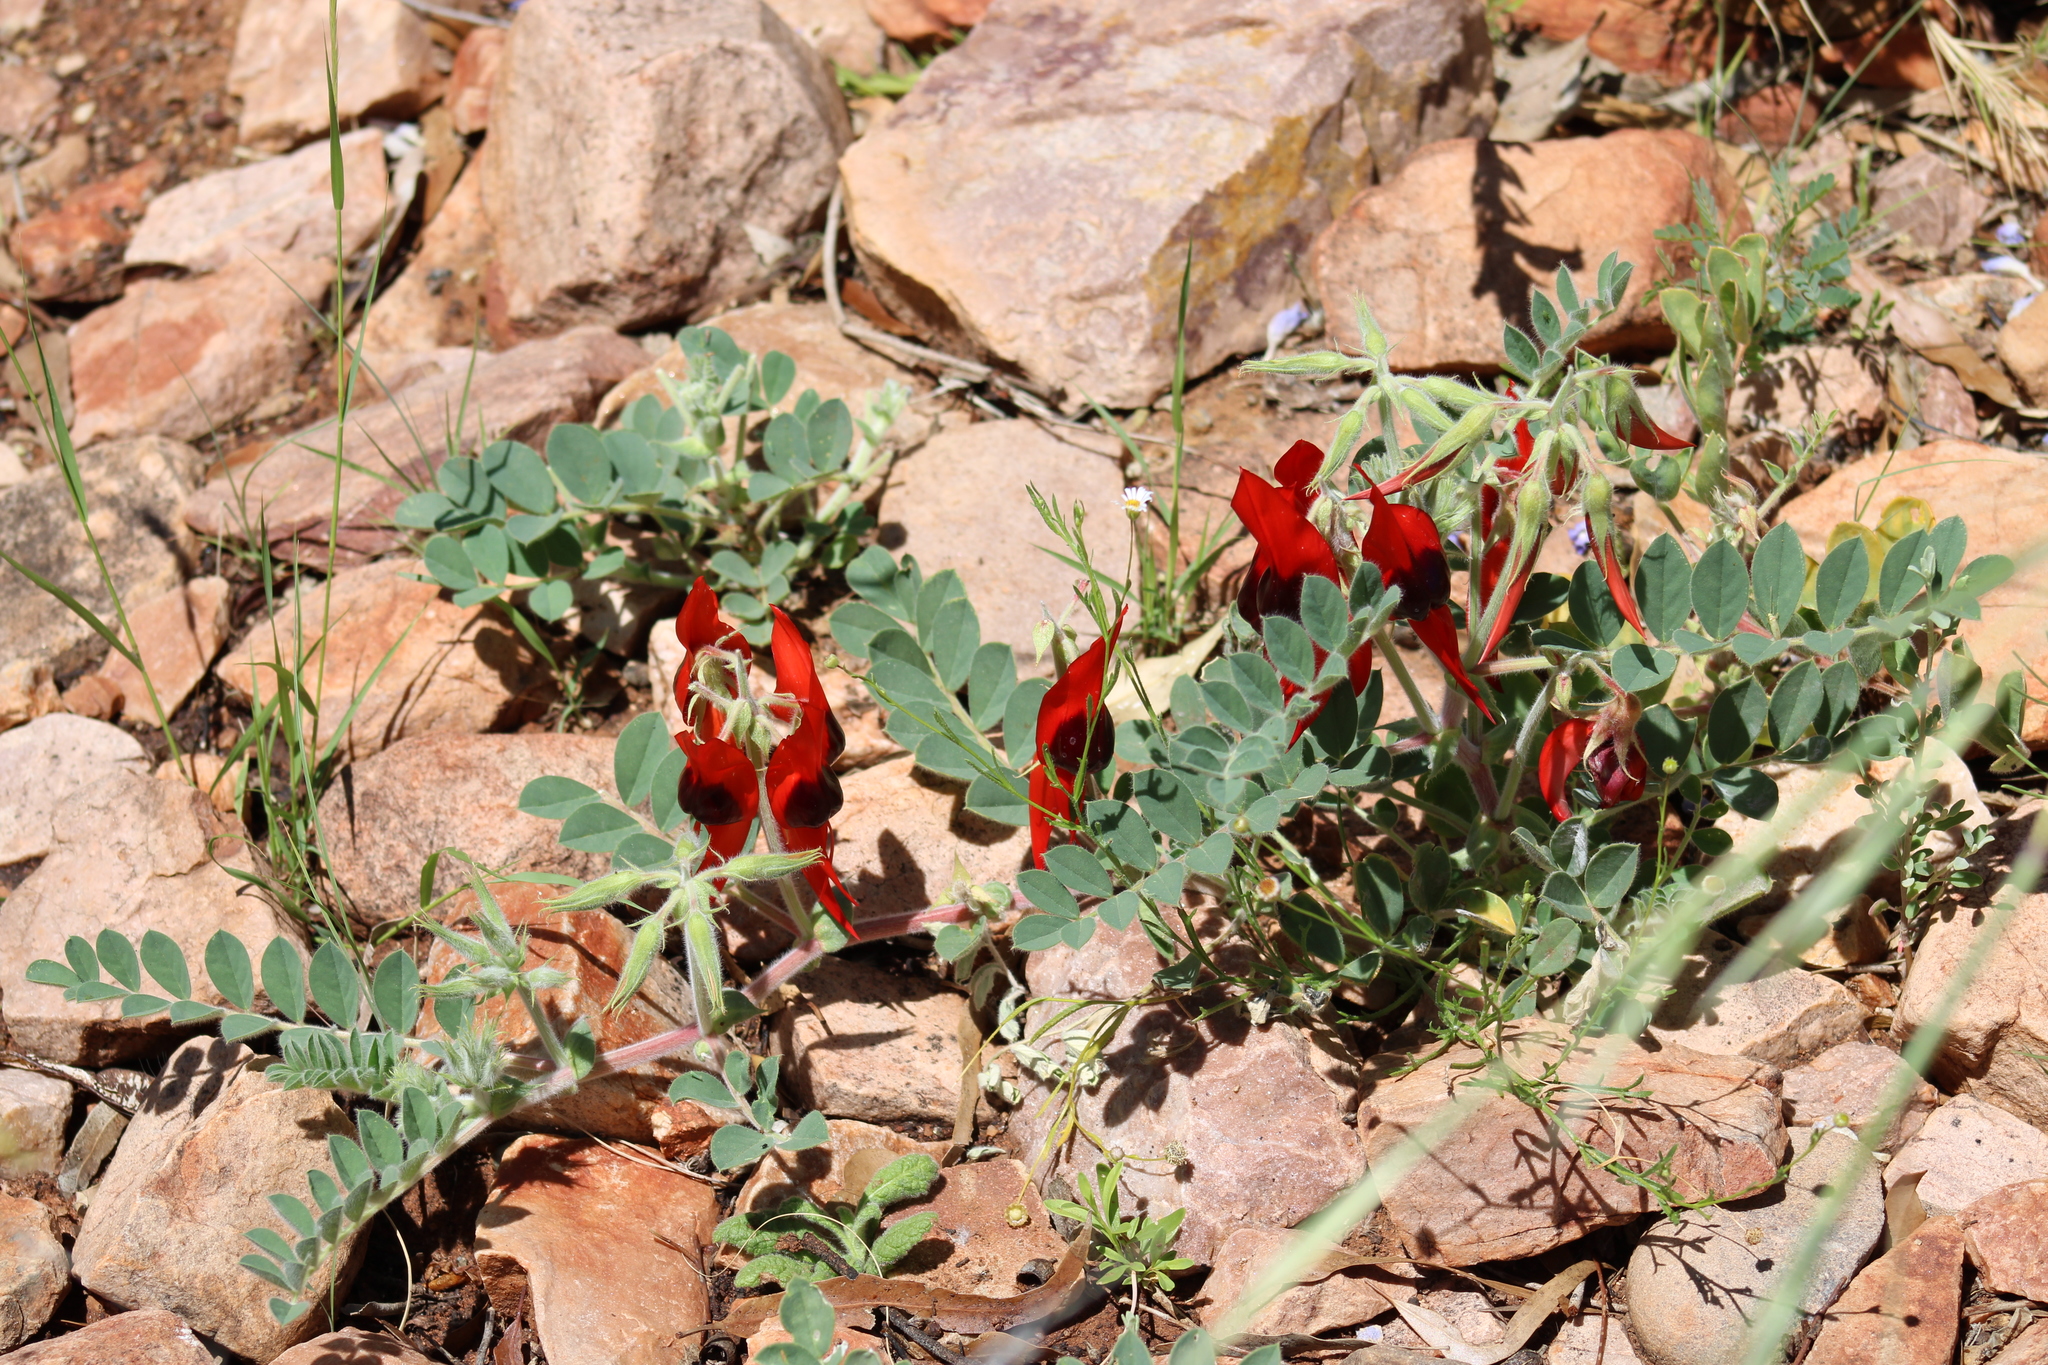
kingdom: Plantae
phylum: Tracheophyta
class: Magnoliopsida
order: Fabales
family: Fabaceae
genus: Swainsona
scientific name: Swainsona formosa
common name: Sturt's desert-pea
